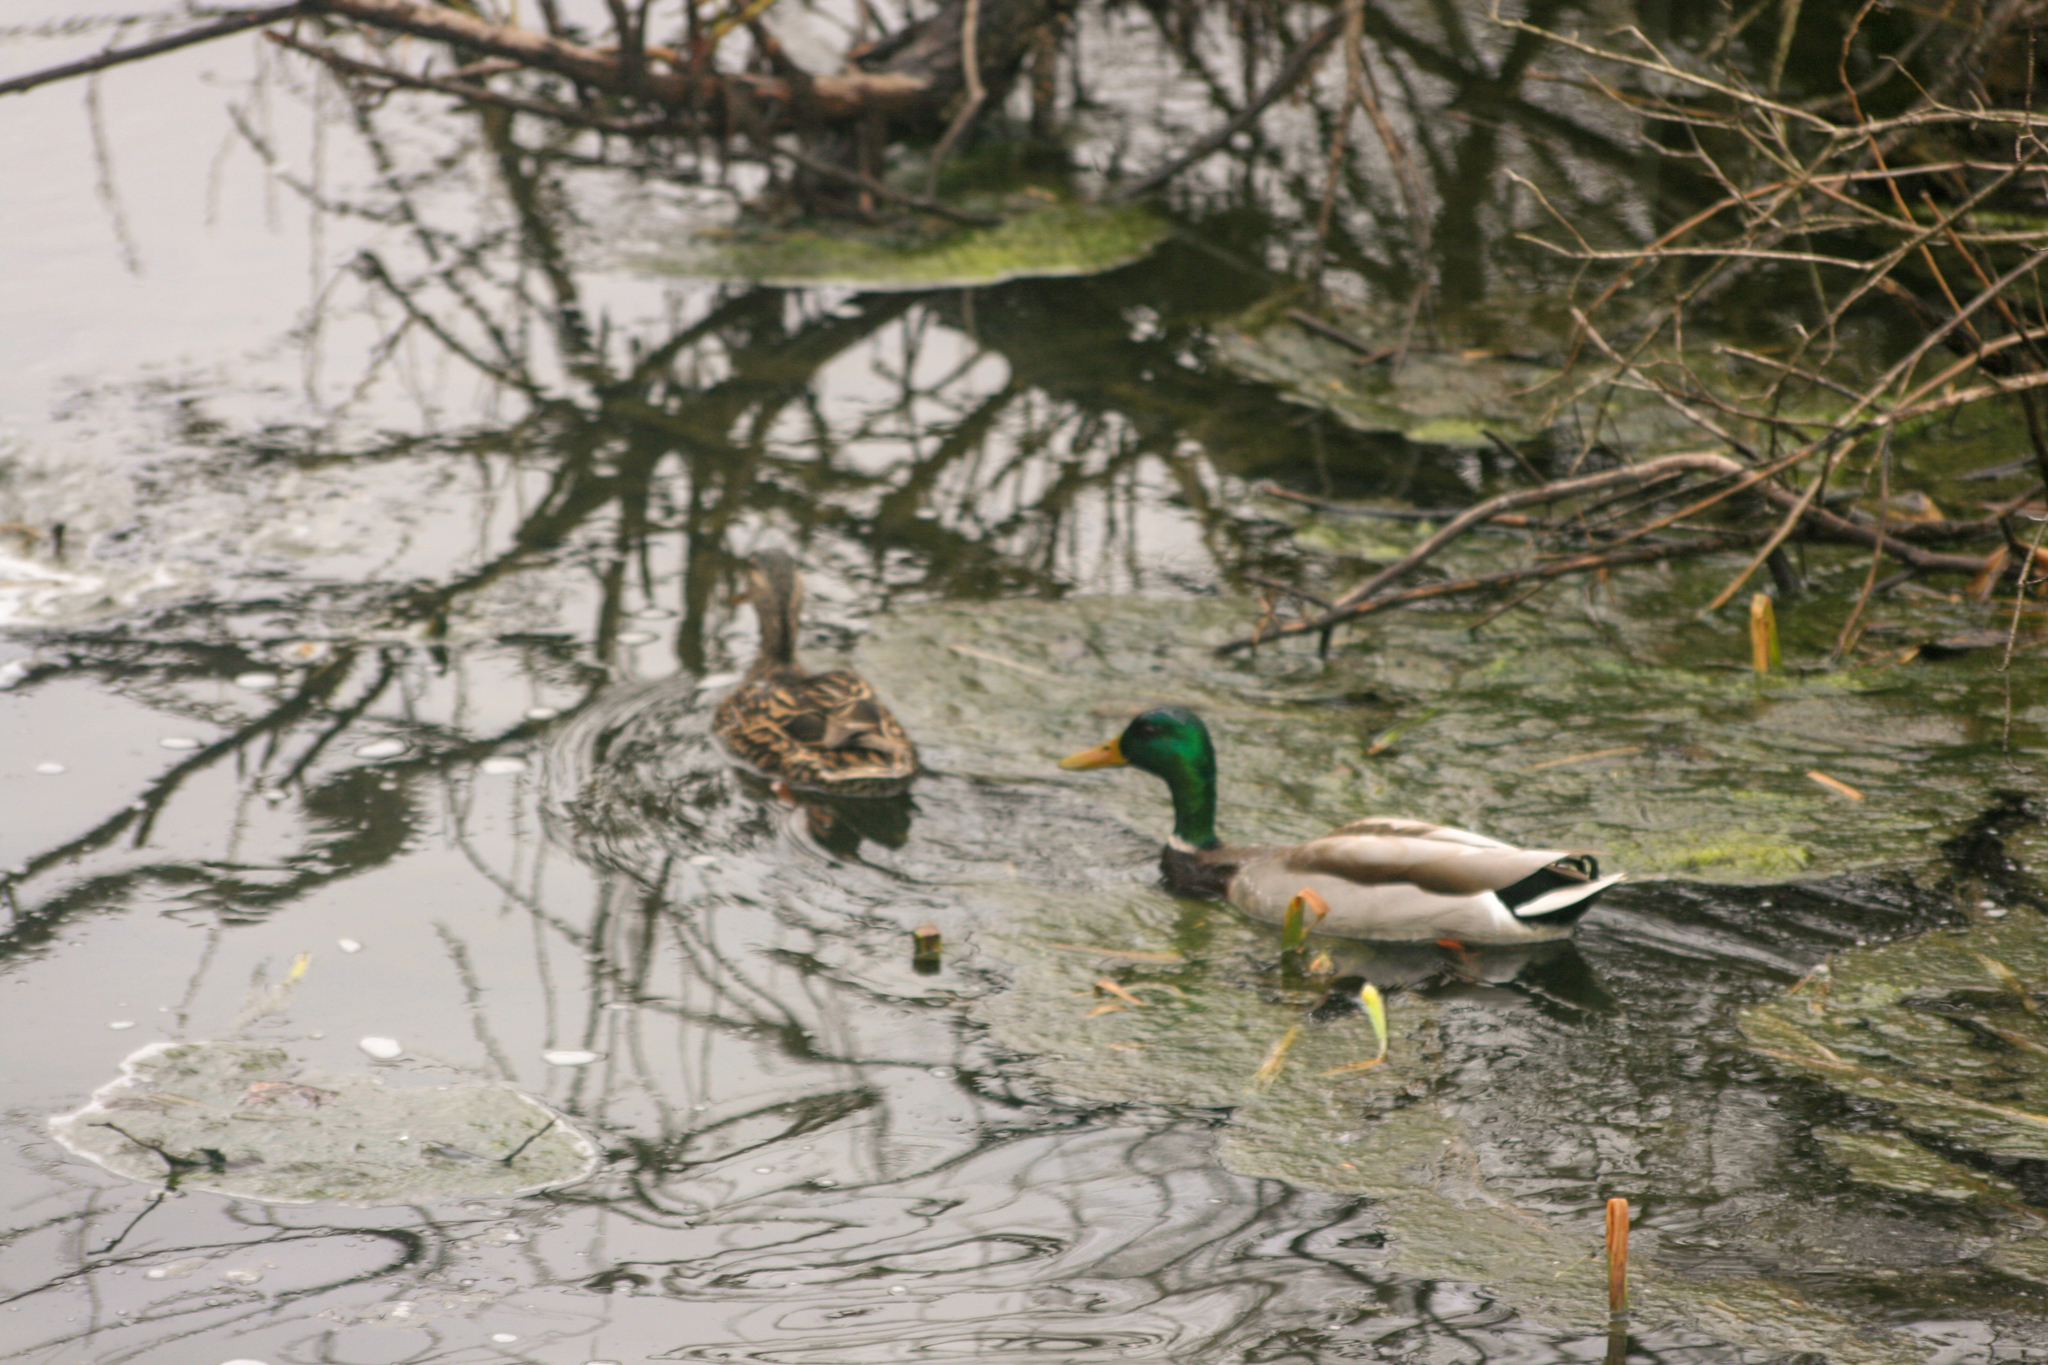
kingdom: Animalia
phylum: Chordata
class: Aves
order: Anseriformes
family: Anatidae
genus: Anas
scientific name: Anas platyrhynchos
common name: Mallard
